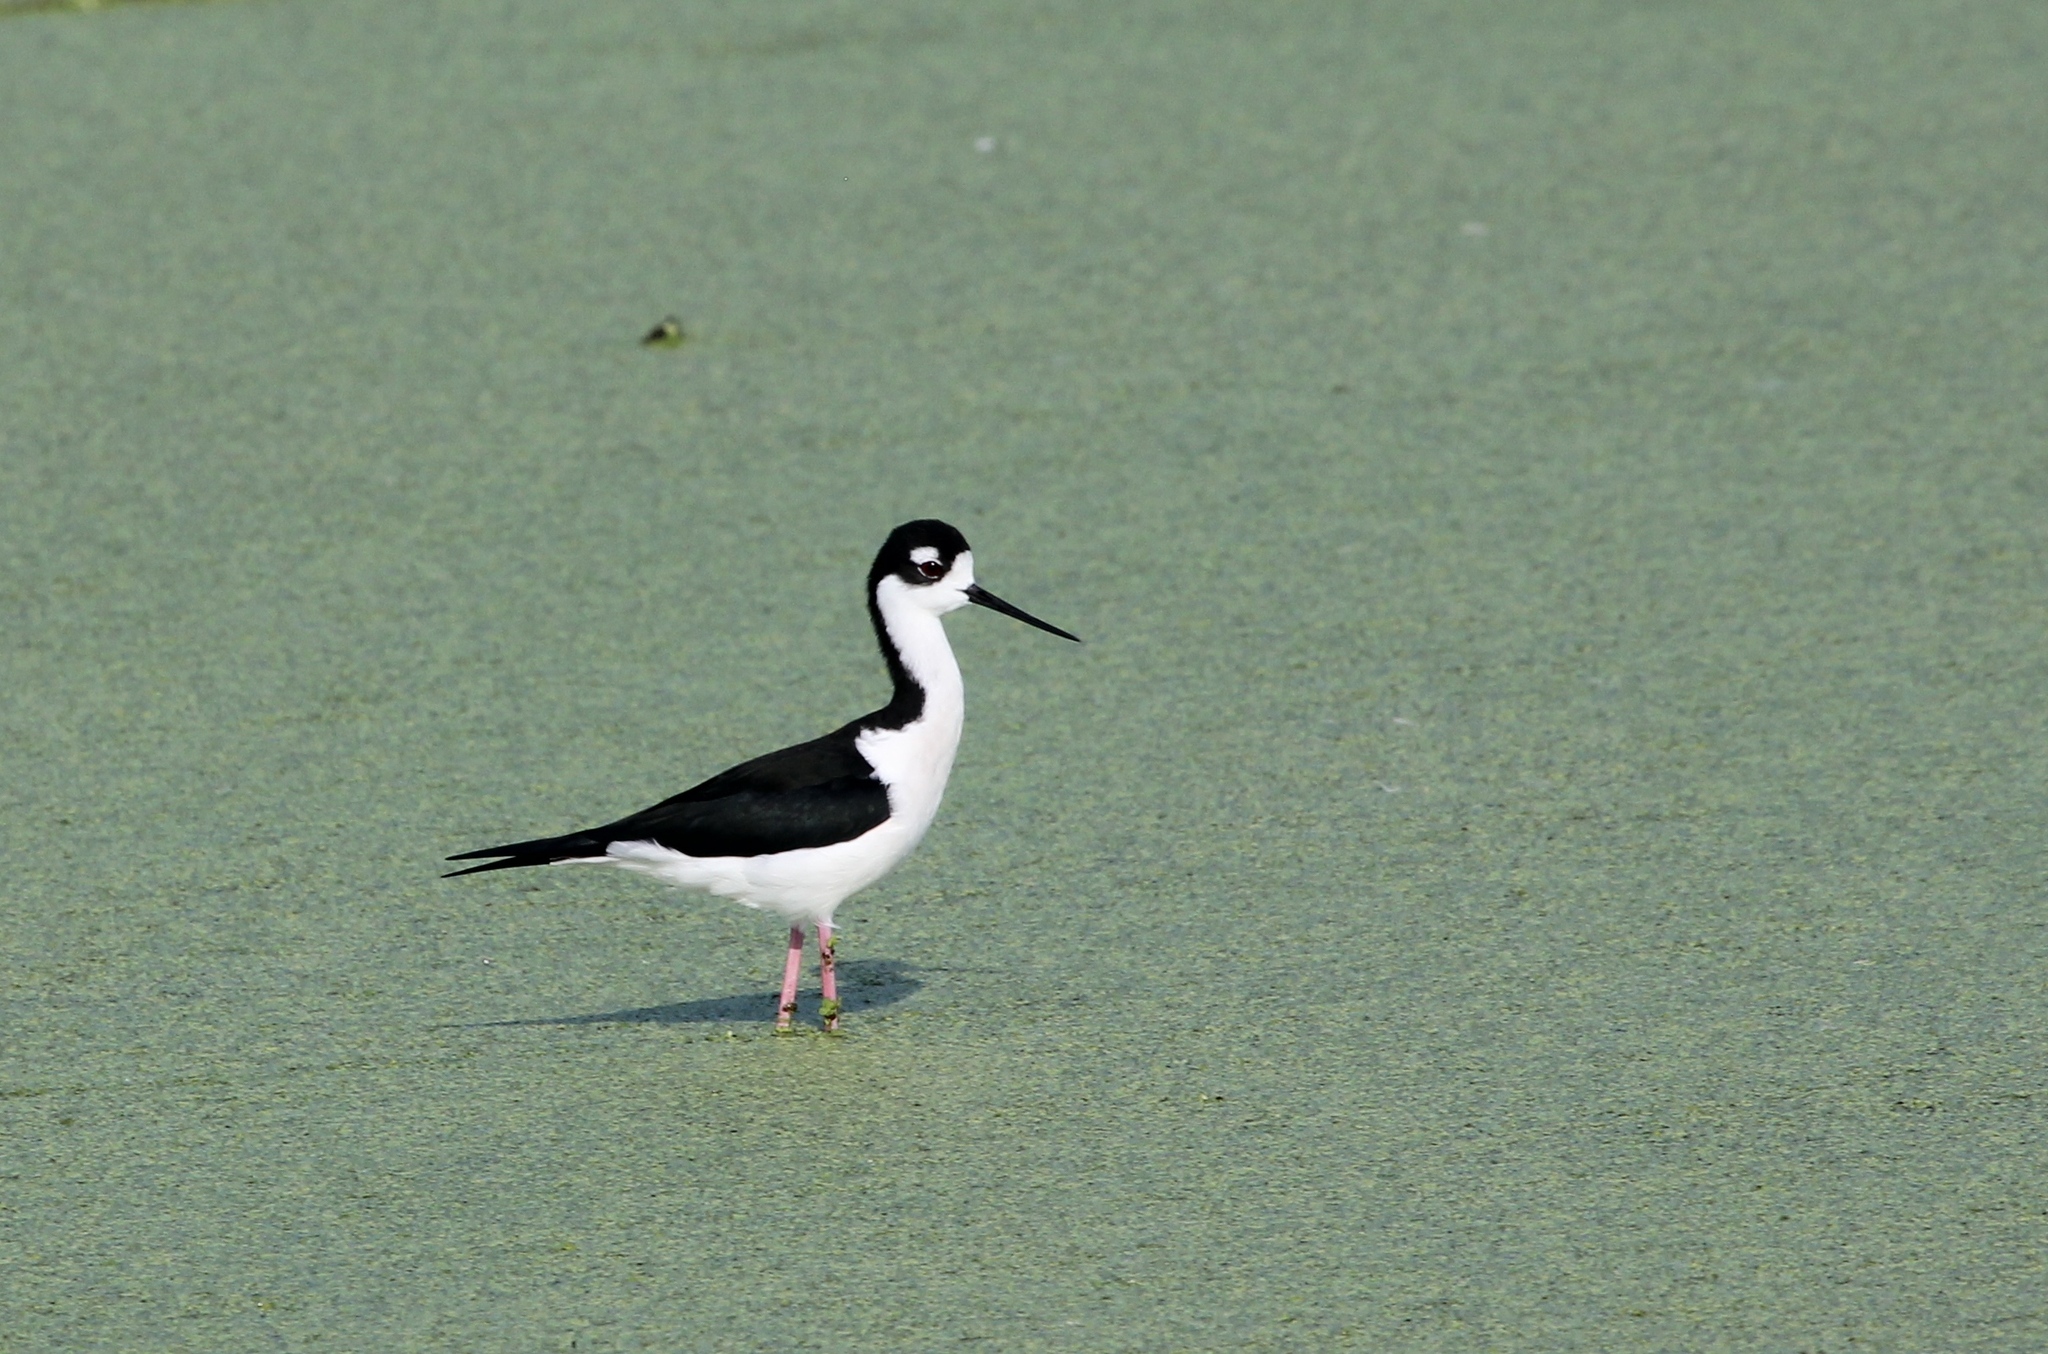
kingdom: Animalia
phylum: Chordata
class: Aves
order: Charadriiformes
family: Recurvirostridae
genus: Himantopus
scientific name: Himantopus mexicanus
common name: Black-necked stilt
